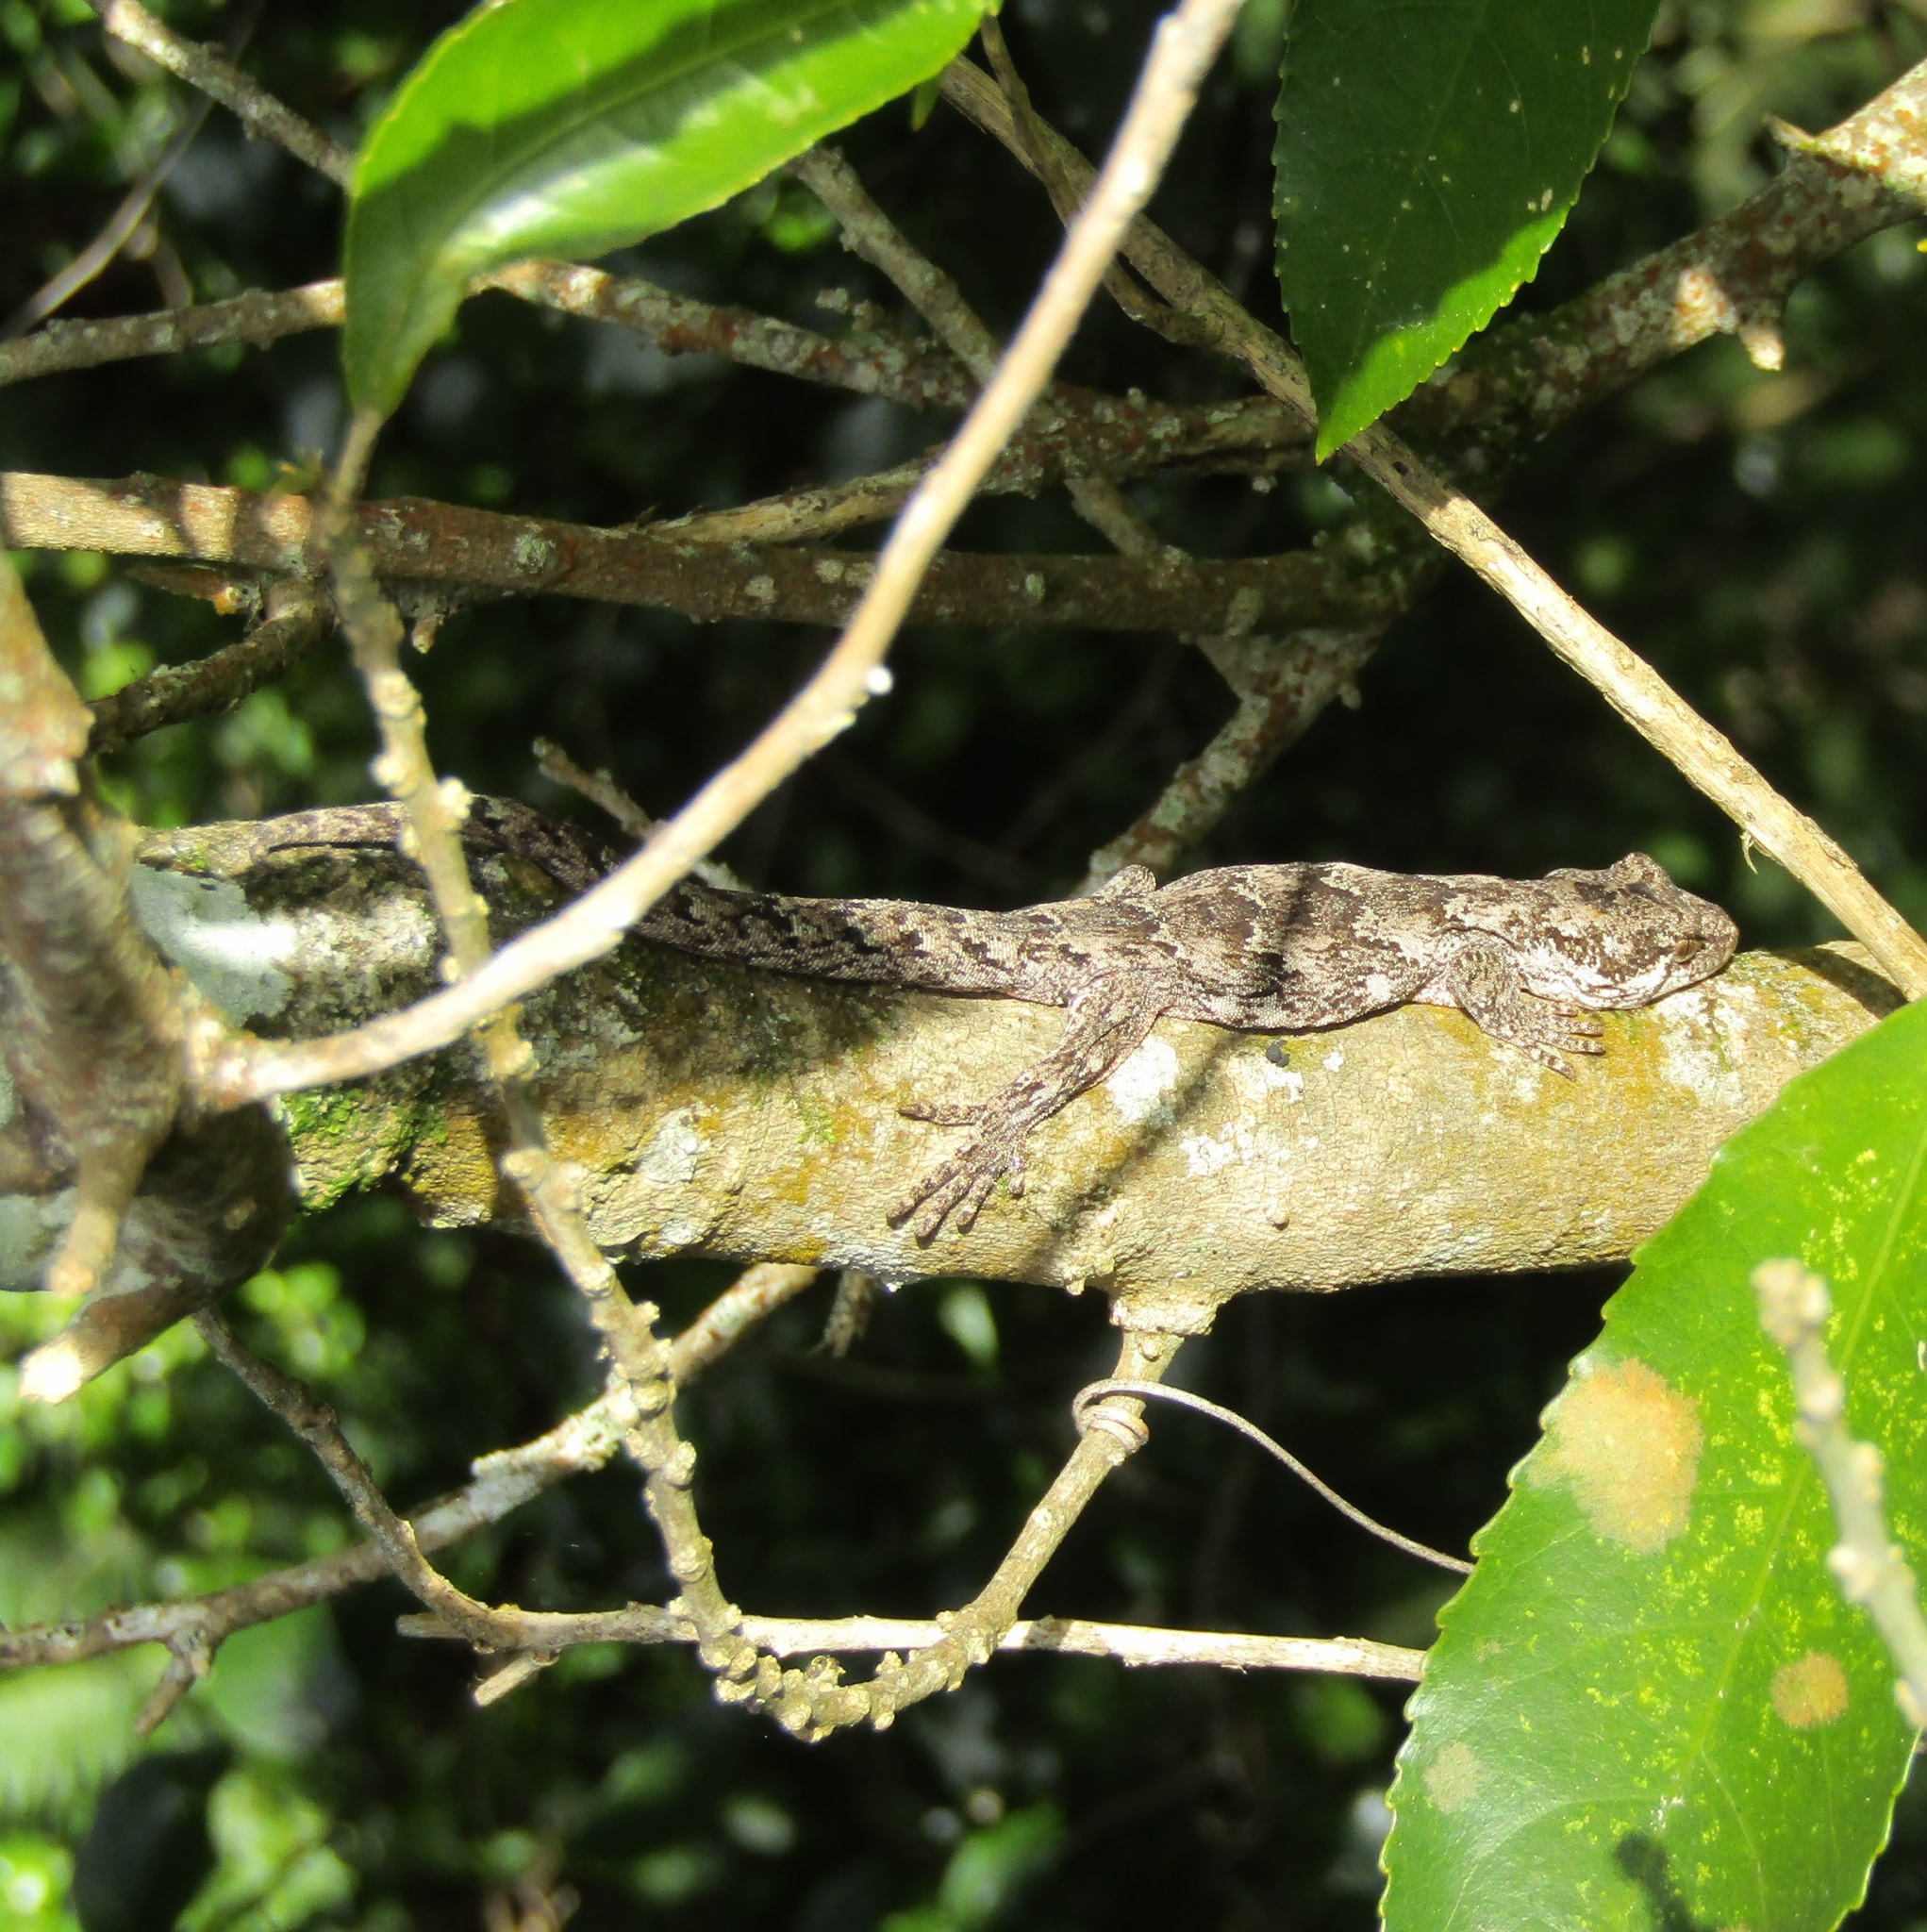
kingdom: Animalia
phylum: Chordata
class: Squamata
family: Diplodactylidae
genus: Mokopirirakau
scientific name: Mokopirirakau
